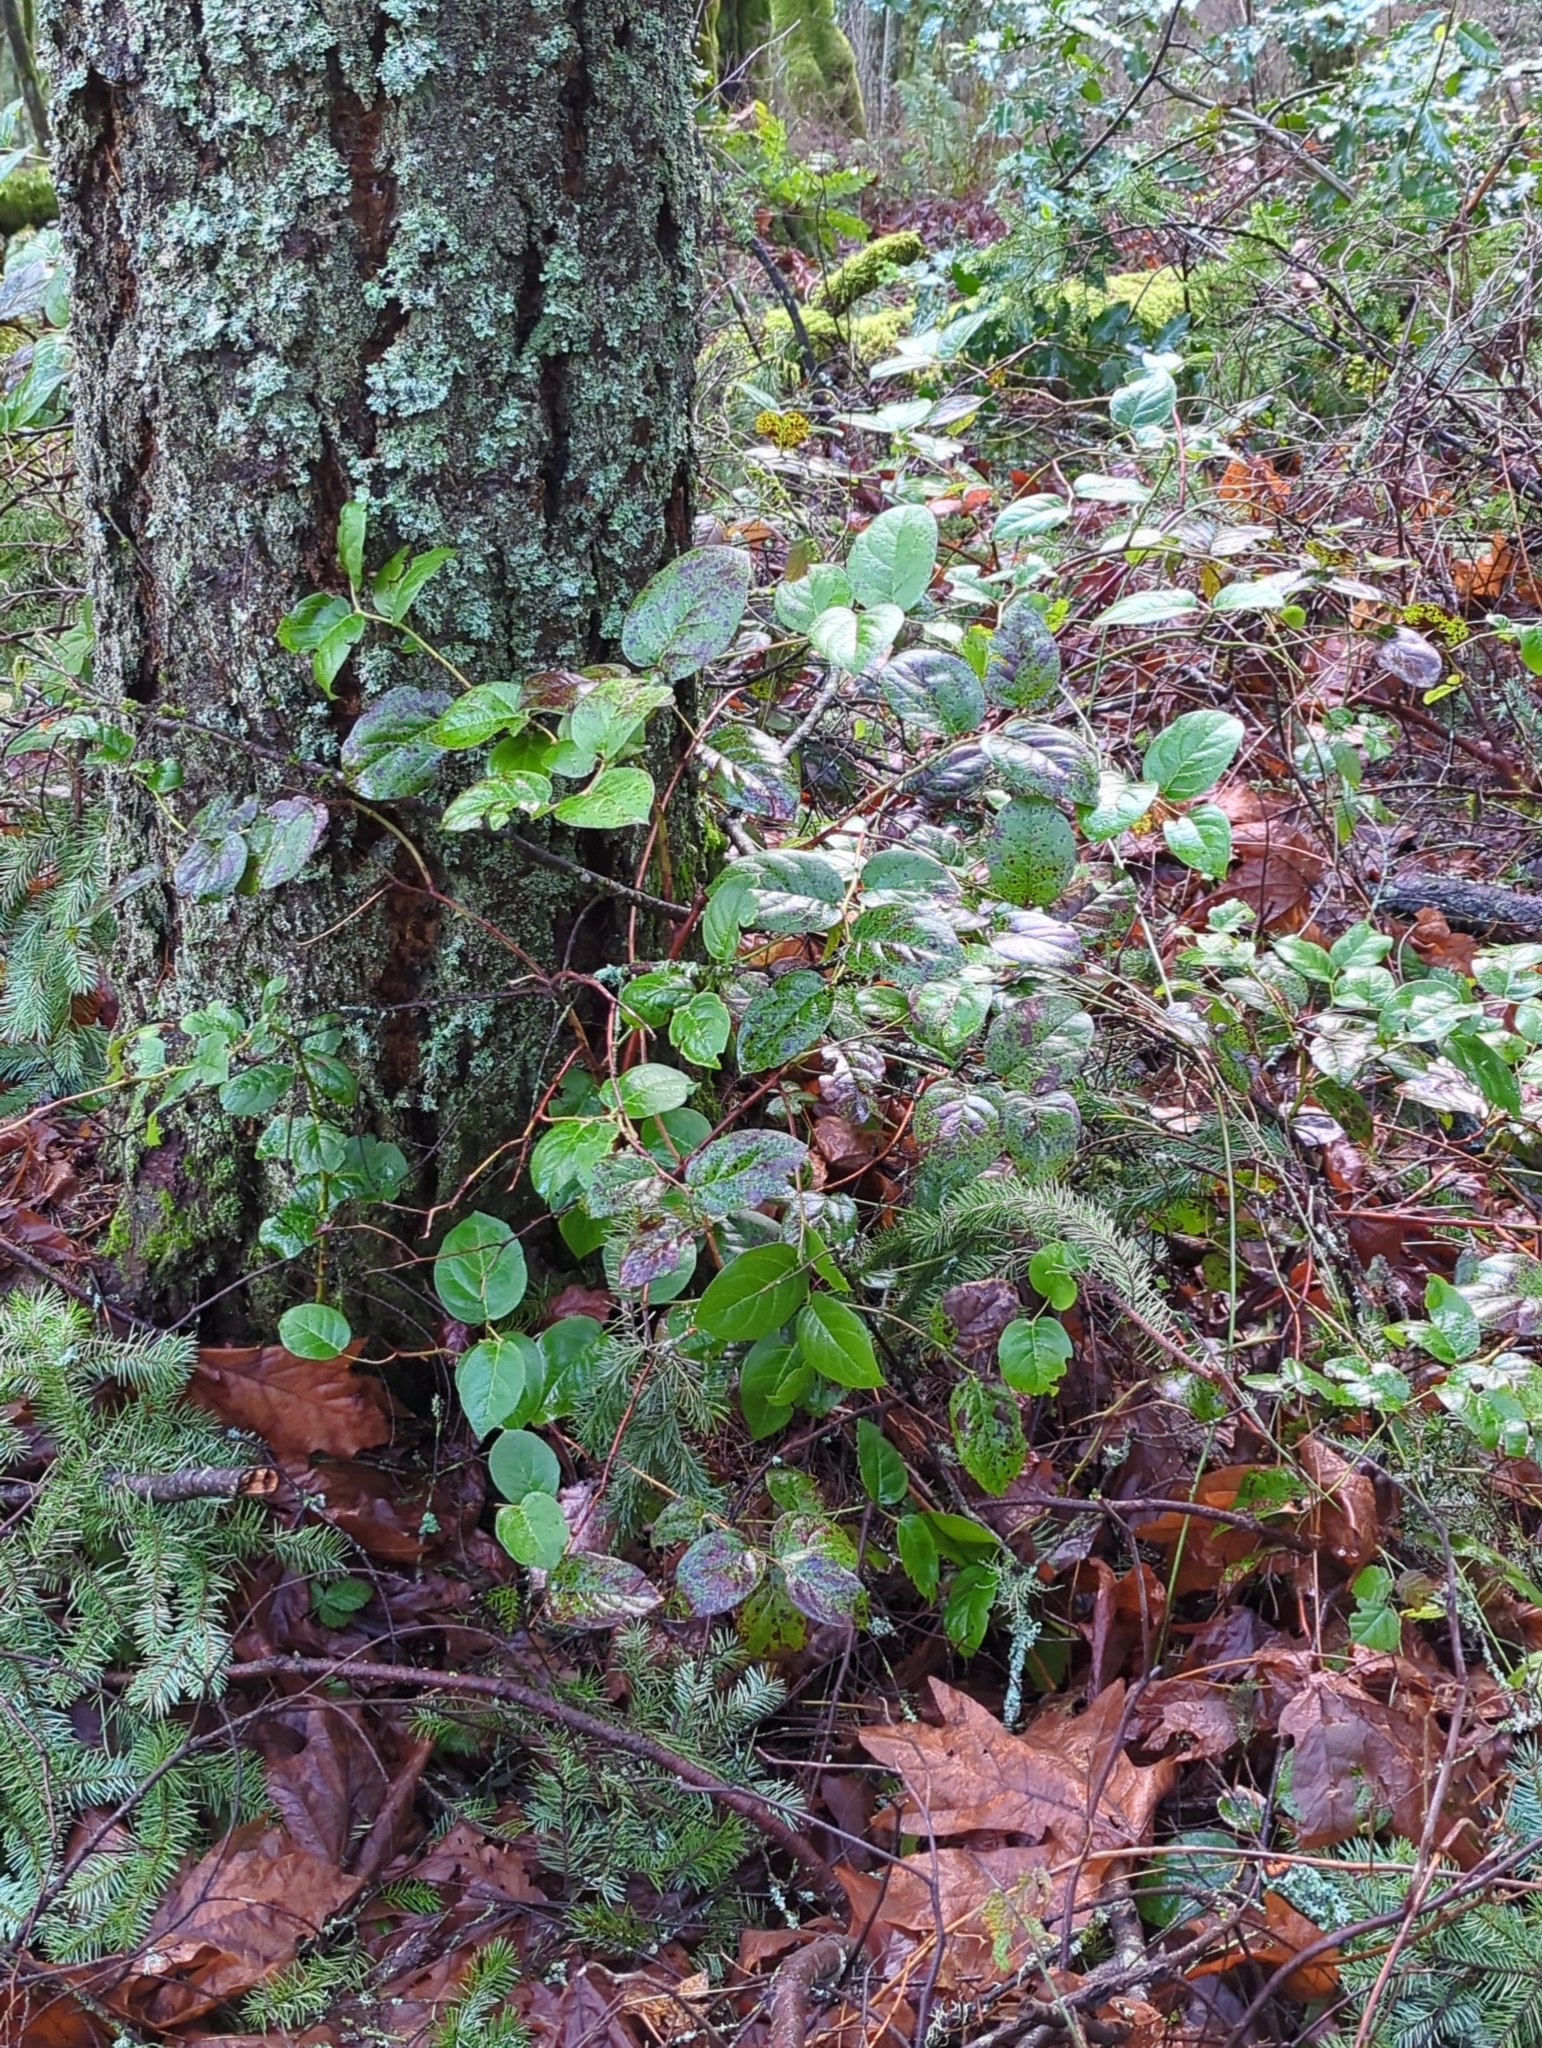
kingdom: Plantae
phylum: Tracheophyta
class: Magnoliopsida
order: Ericales
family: Ericaceae
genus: Gaultheria
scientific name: Gaultheria shallon
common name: Shallon
